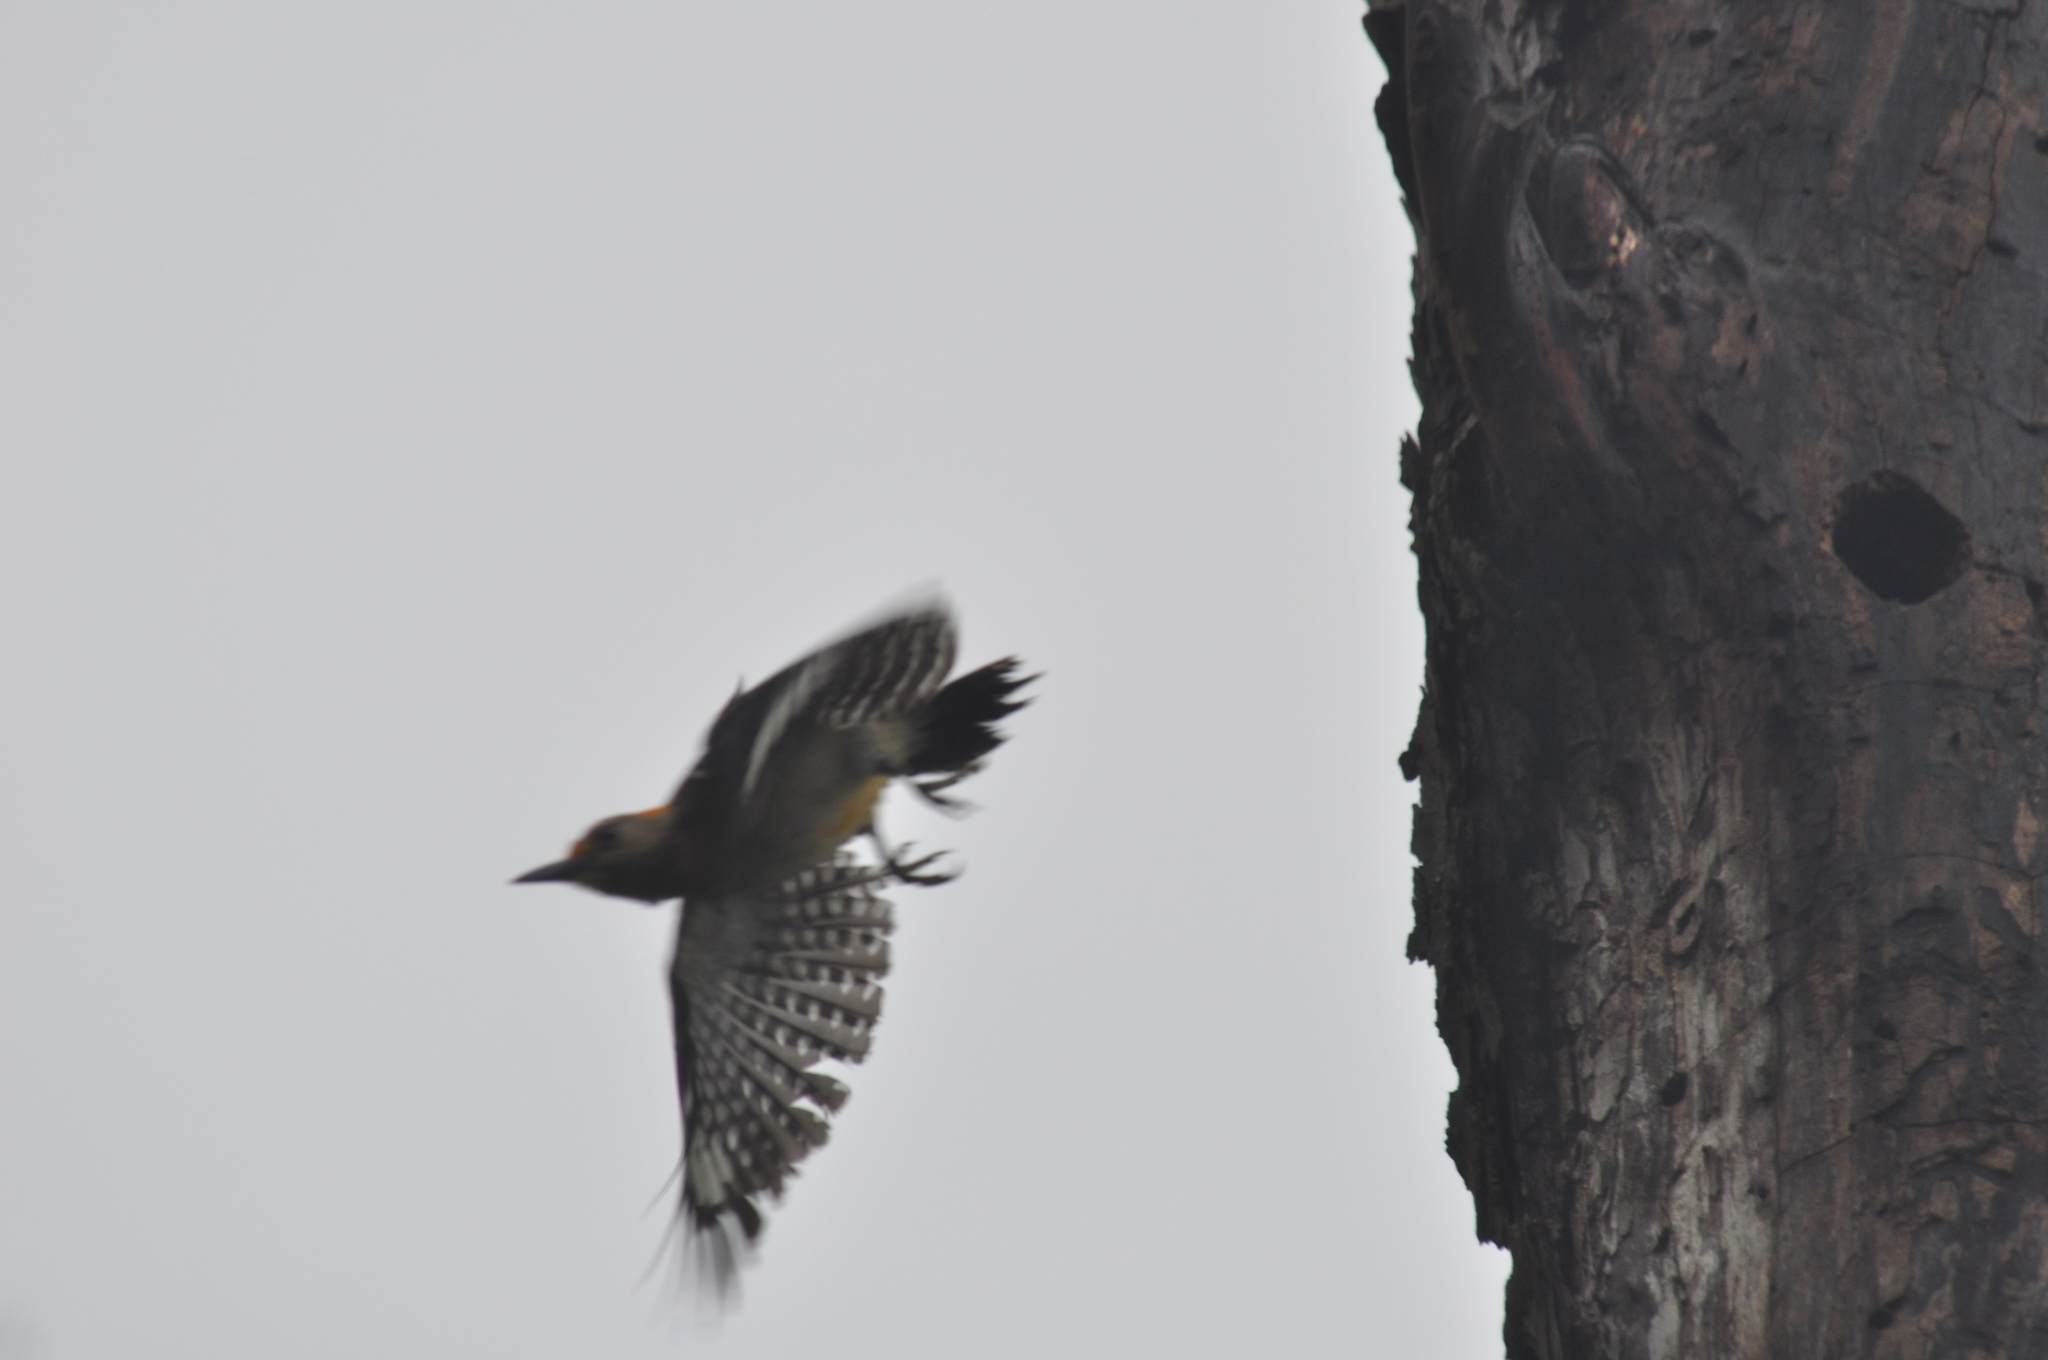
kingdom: Animalia
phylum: Chordata
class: Aves
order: Piciformes
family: Picidae
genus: Melanerpes
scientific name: Melanerpes aurifrons
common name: Golden-fronted woodpecker
